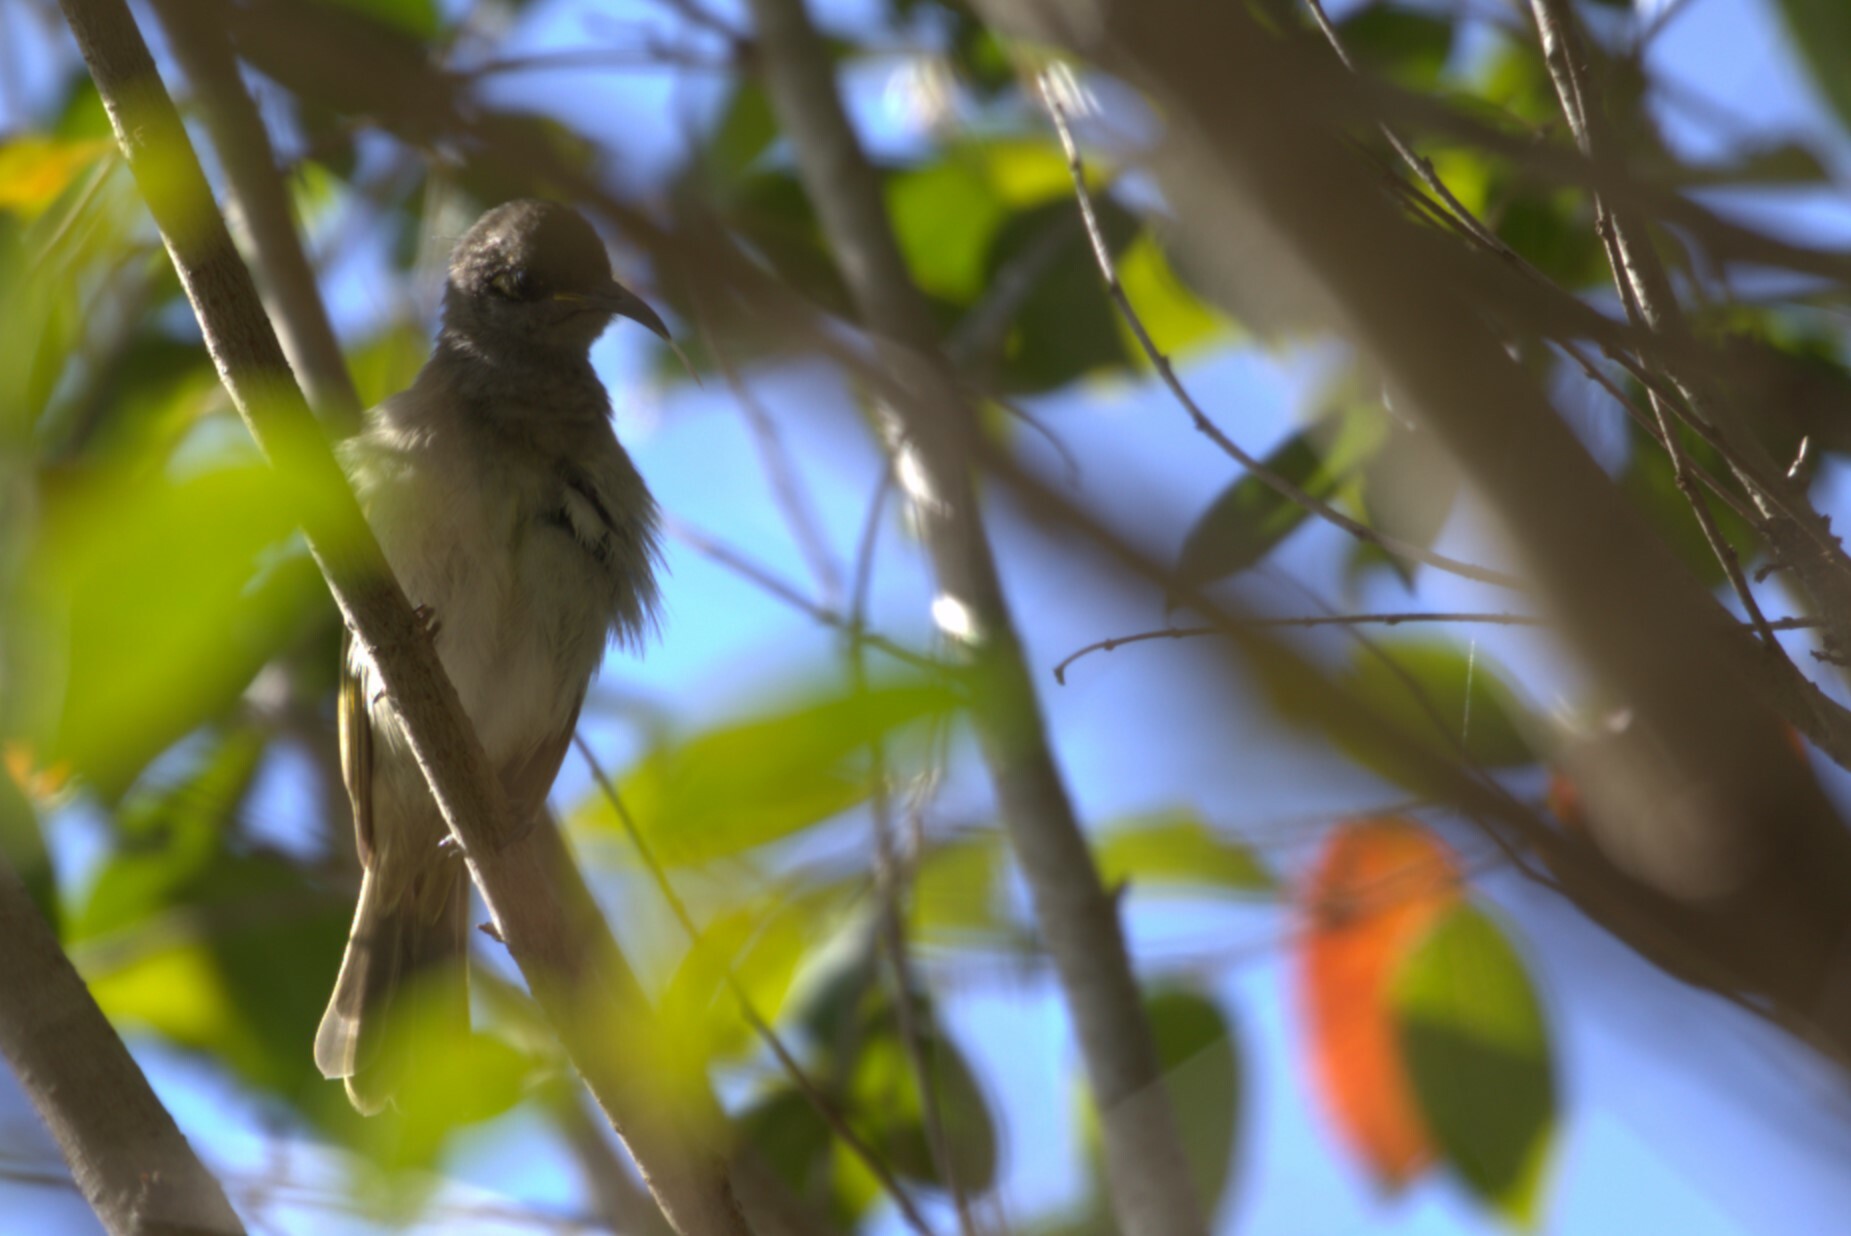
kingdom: Animalia
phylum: Chordata
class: Aves
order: Passeriformes
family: Meliphagidae
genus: Lichmera
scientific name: Lichmera indistincta
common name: Brown honeyeater
